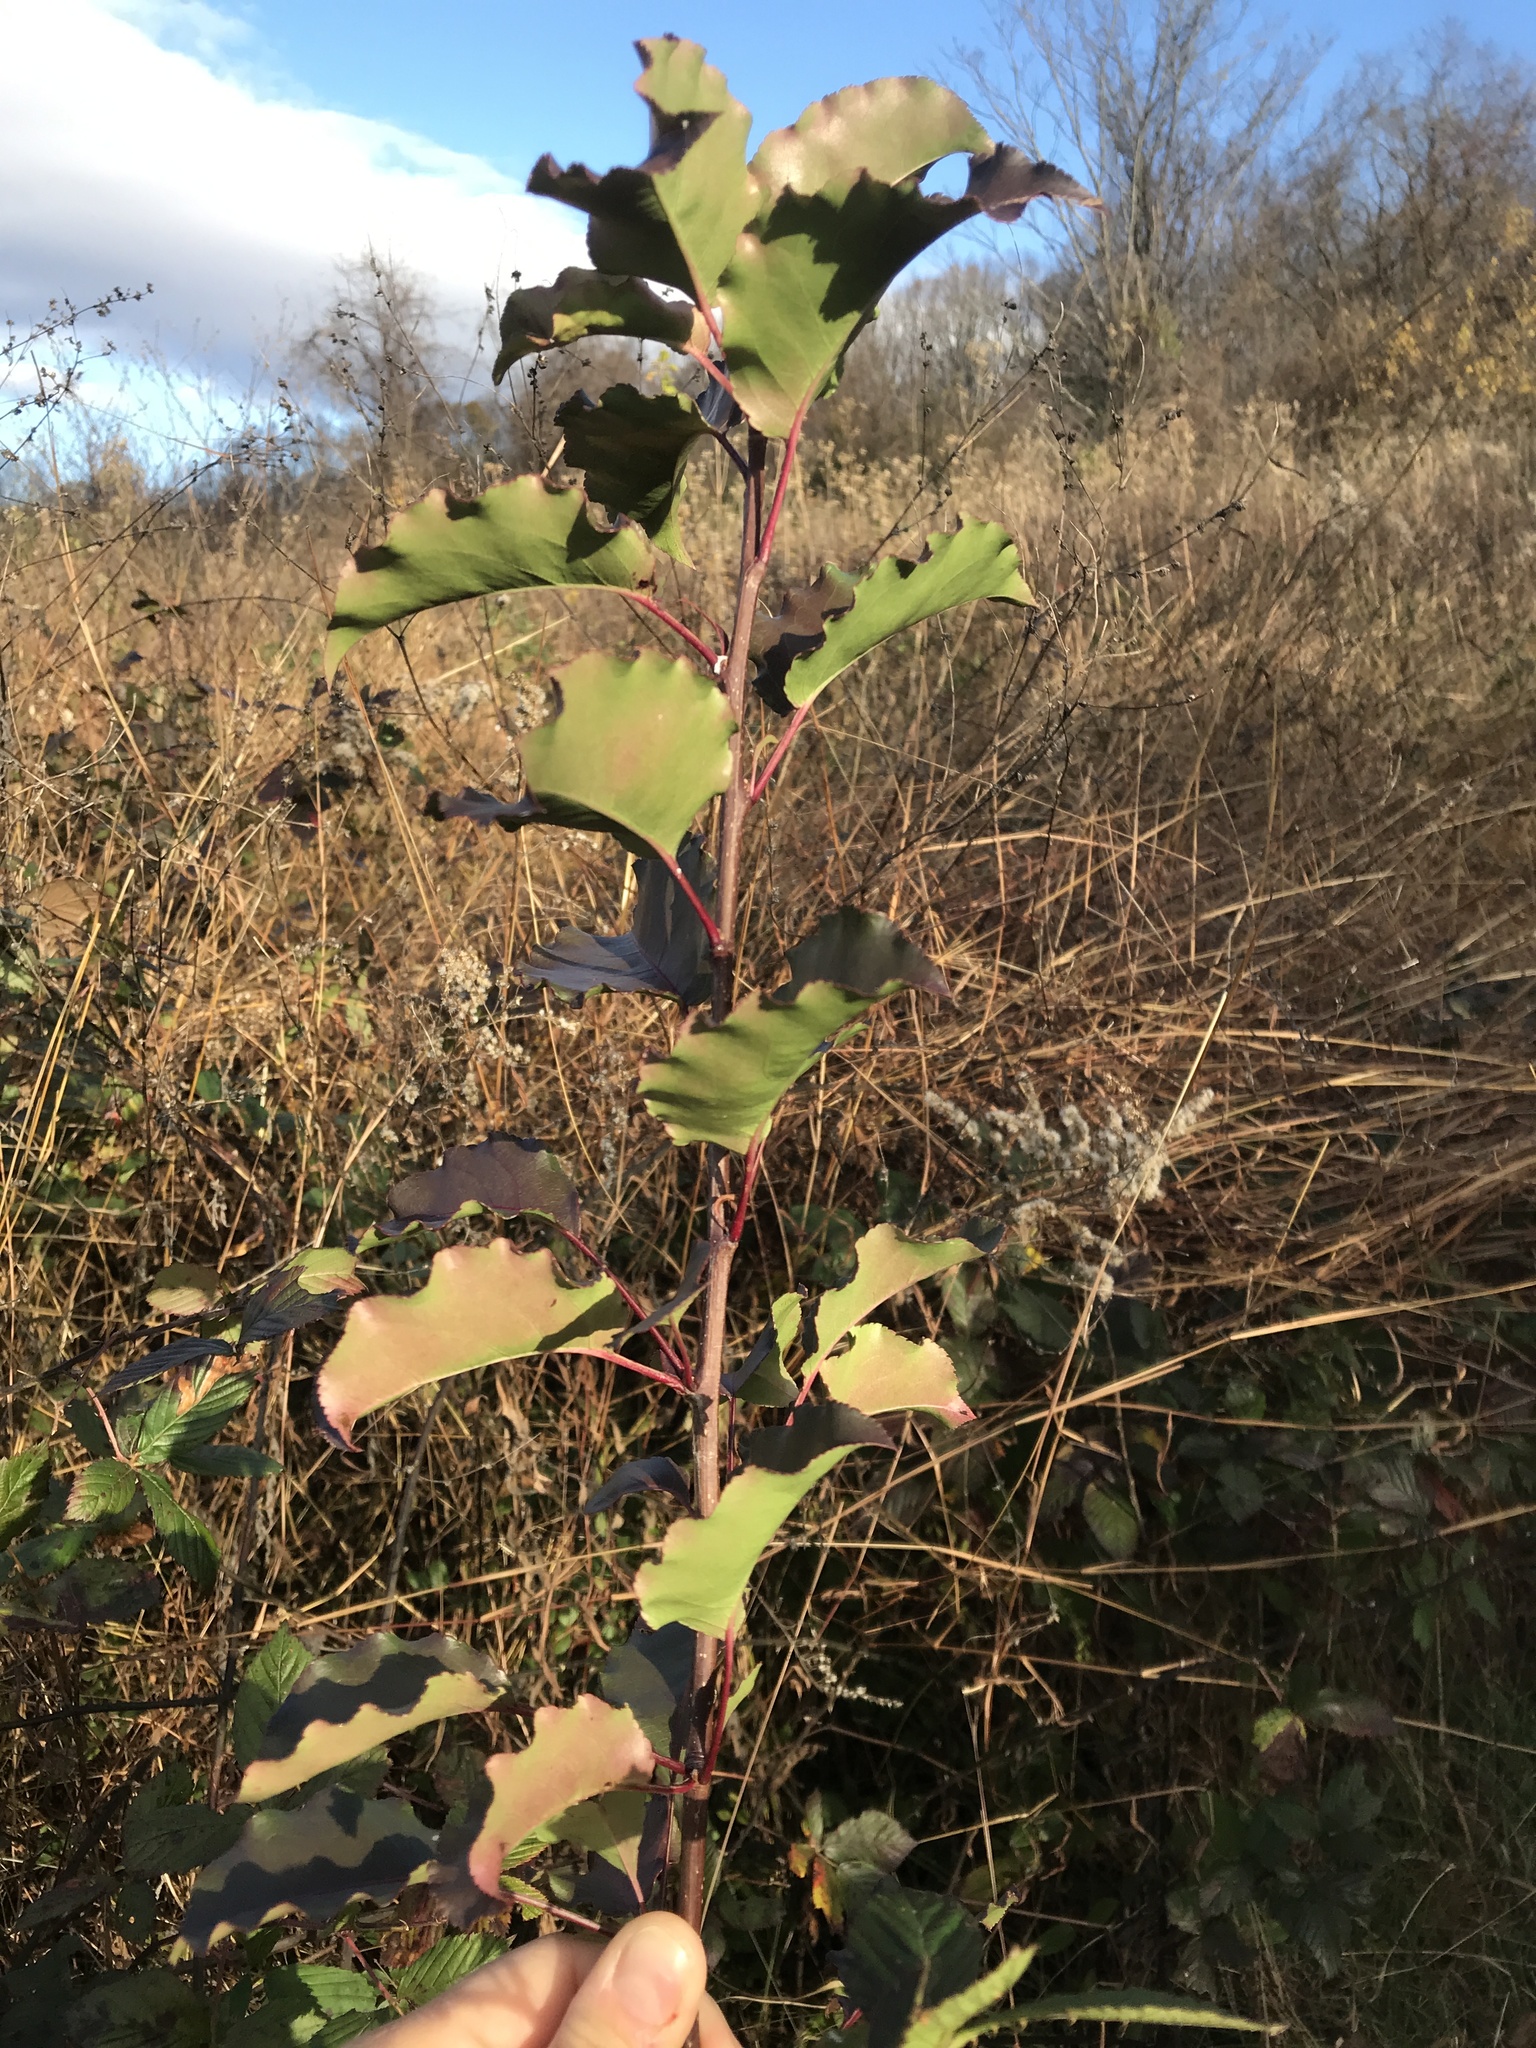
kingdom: Plantae
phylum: Tracheophyta
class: Magnoliopsida
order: Rosales
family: Rosaceae
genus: Pyrus
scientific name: Pyrus calleryana
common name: Callery pear
